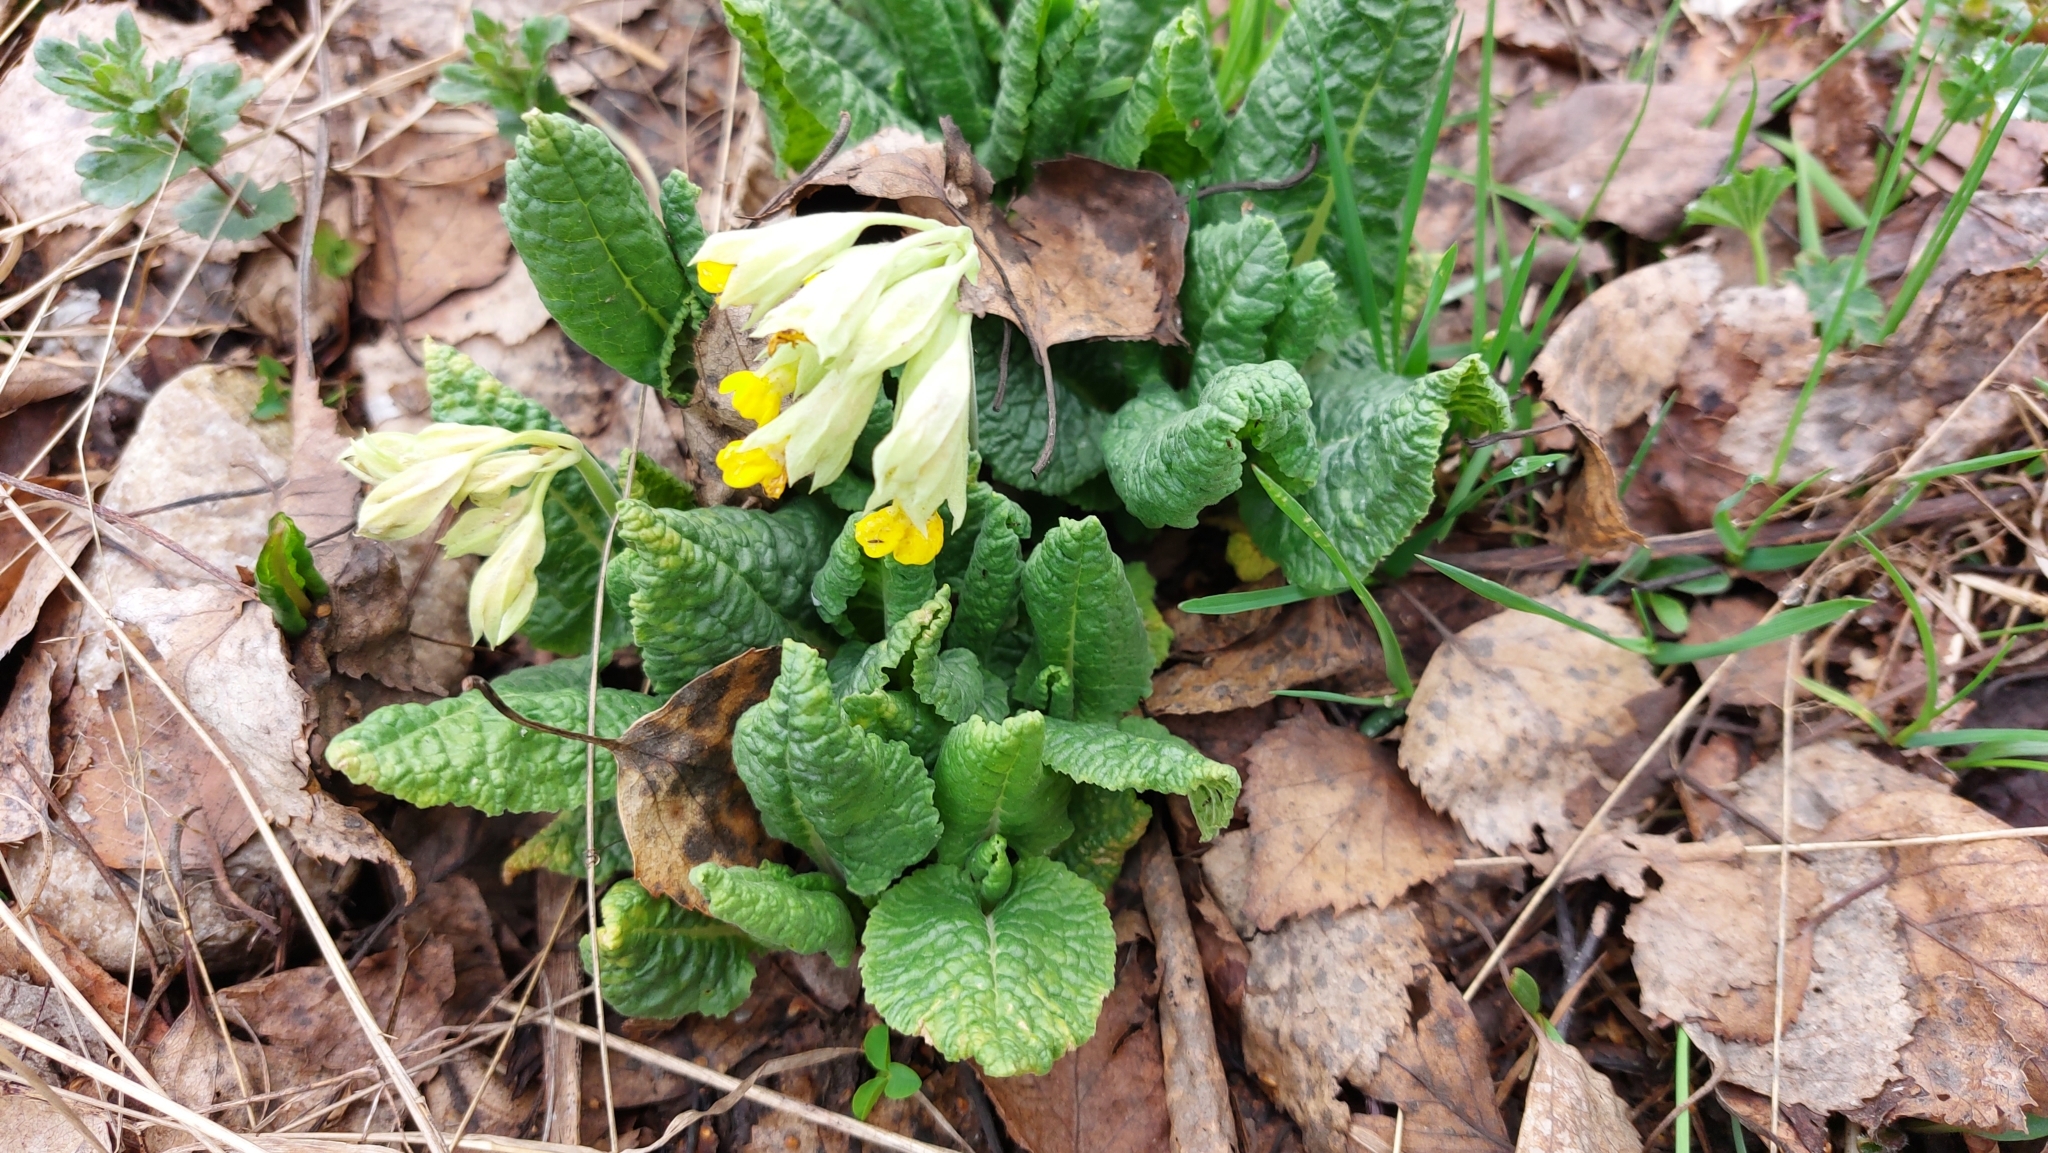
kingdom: Plantae
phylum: Tracheophyta
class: Magnoliopsida
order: Ericales
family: Primulaceae
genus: Primula
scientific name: Primula vulgaris
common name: Primrose
